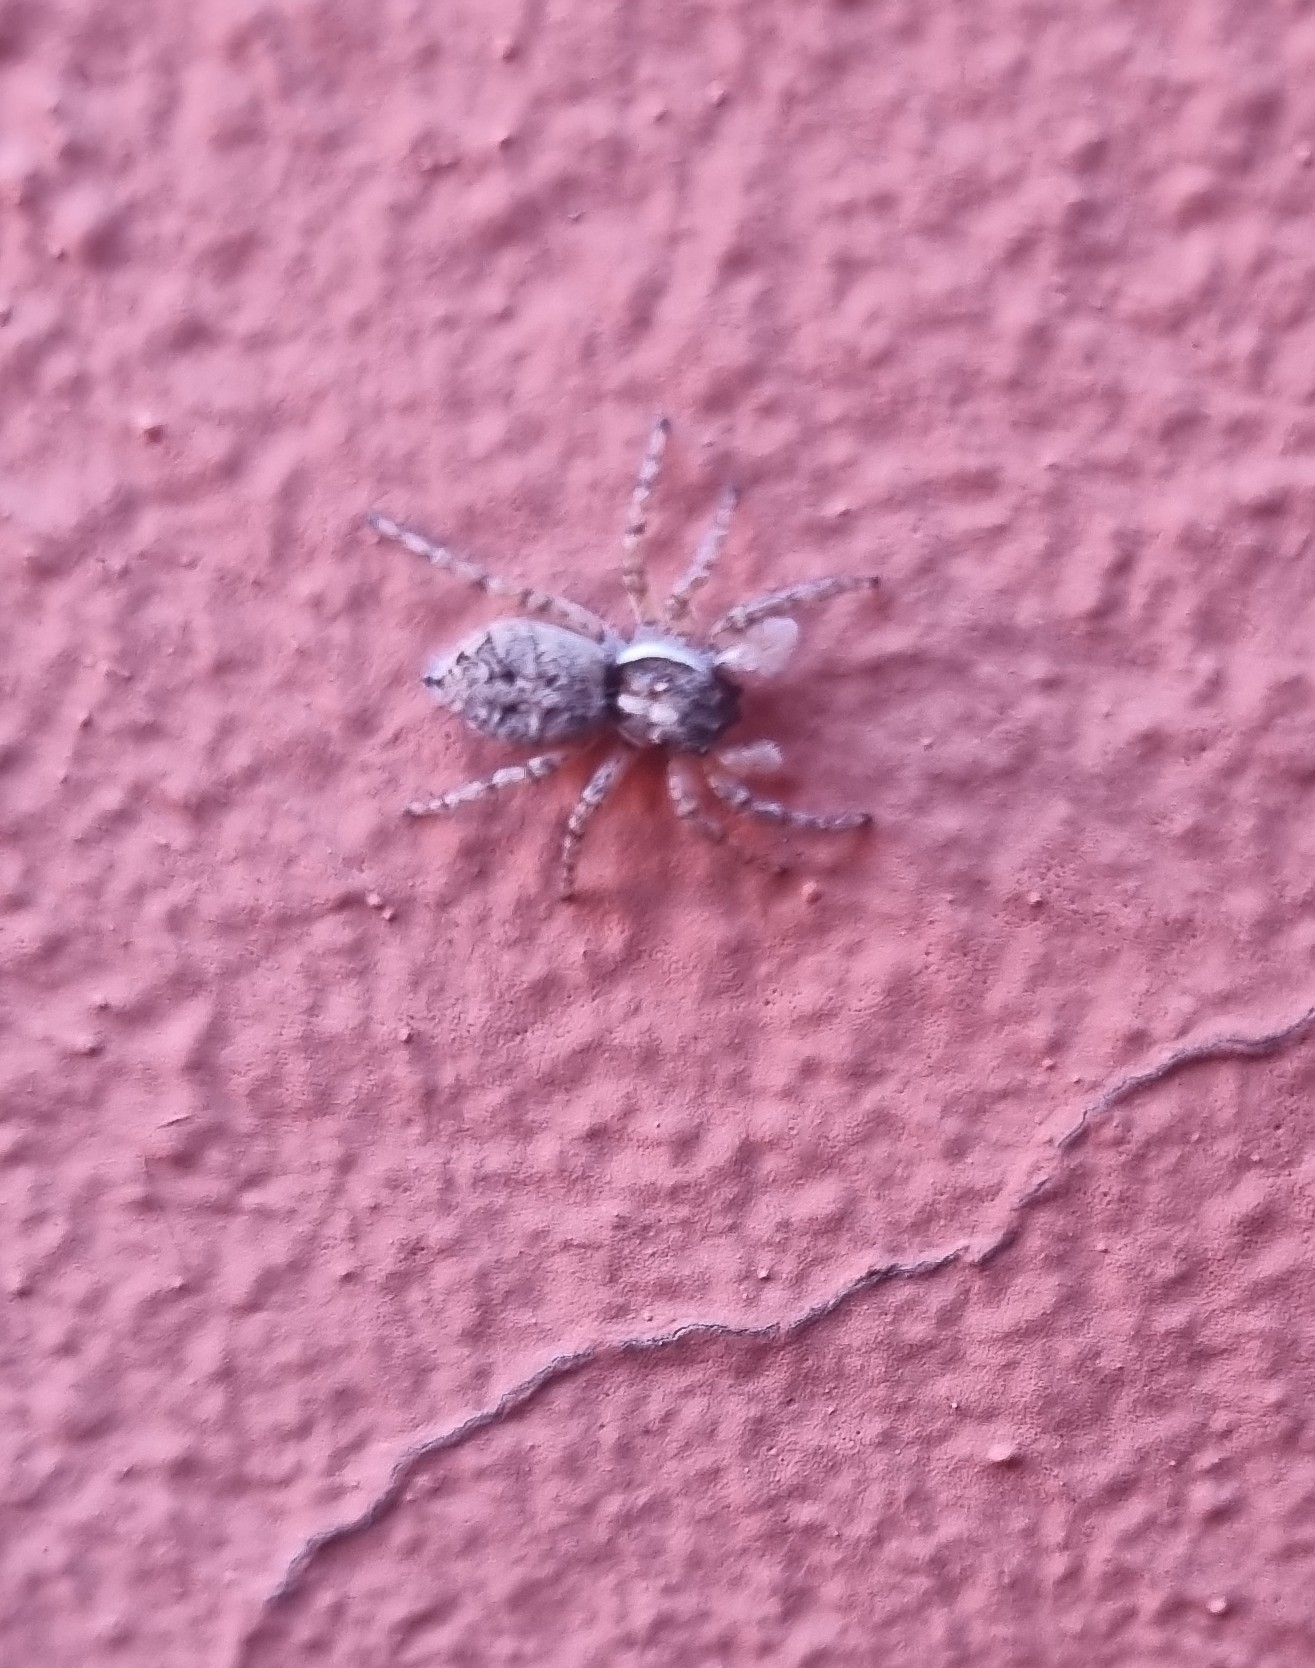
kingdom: Animalia
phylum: Arthropoda
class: Arachnida
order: Araneae
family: Salticidae
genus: Menemerus
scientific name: Menemerus semilimbatus
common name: Jumping spider
